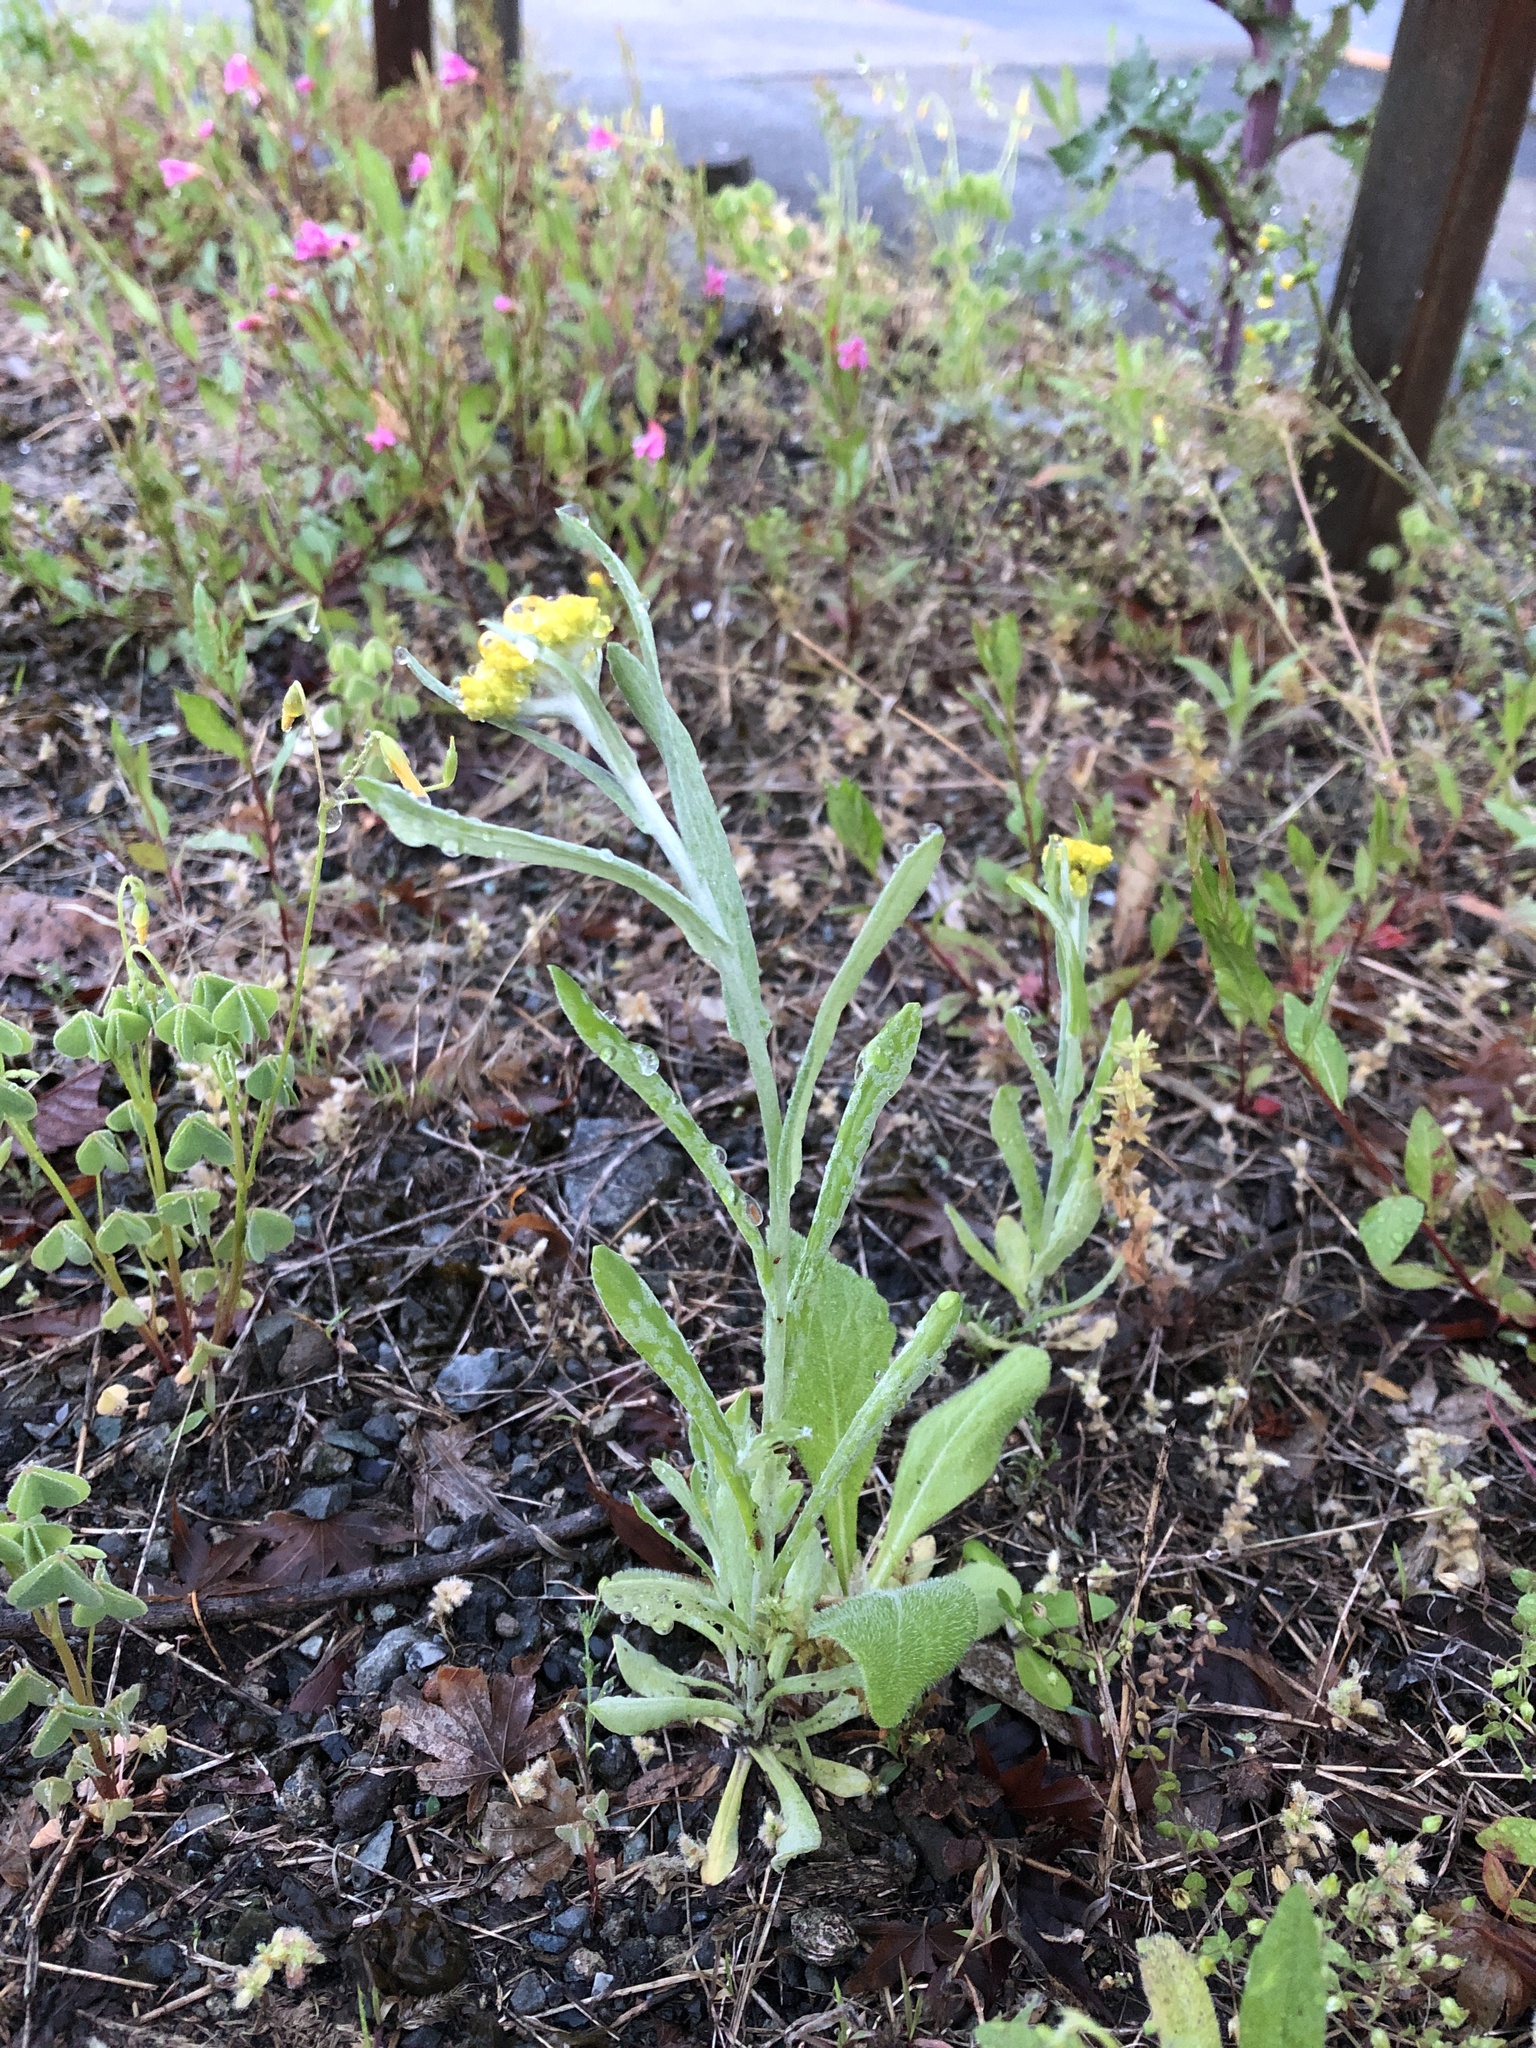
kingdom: Plantae
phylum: Tracheophyta
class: Magnoliopsida
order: Asterales
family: Asteraceae
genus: Pseudognaphalium
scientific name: Pseudognaphalium affine
